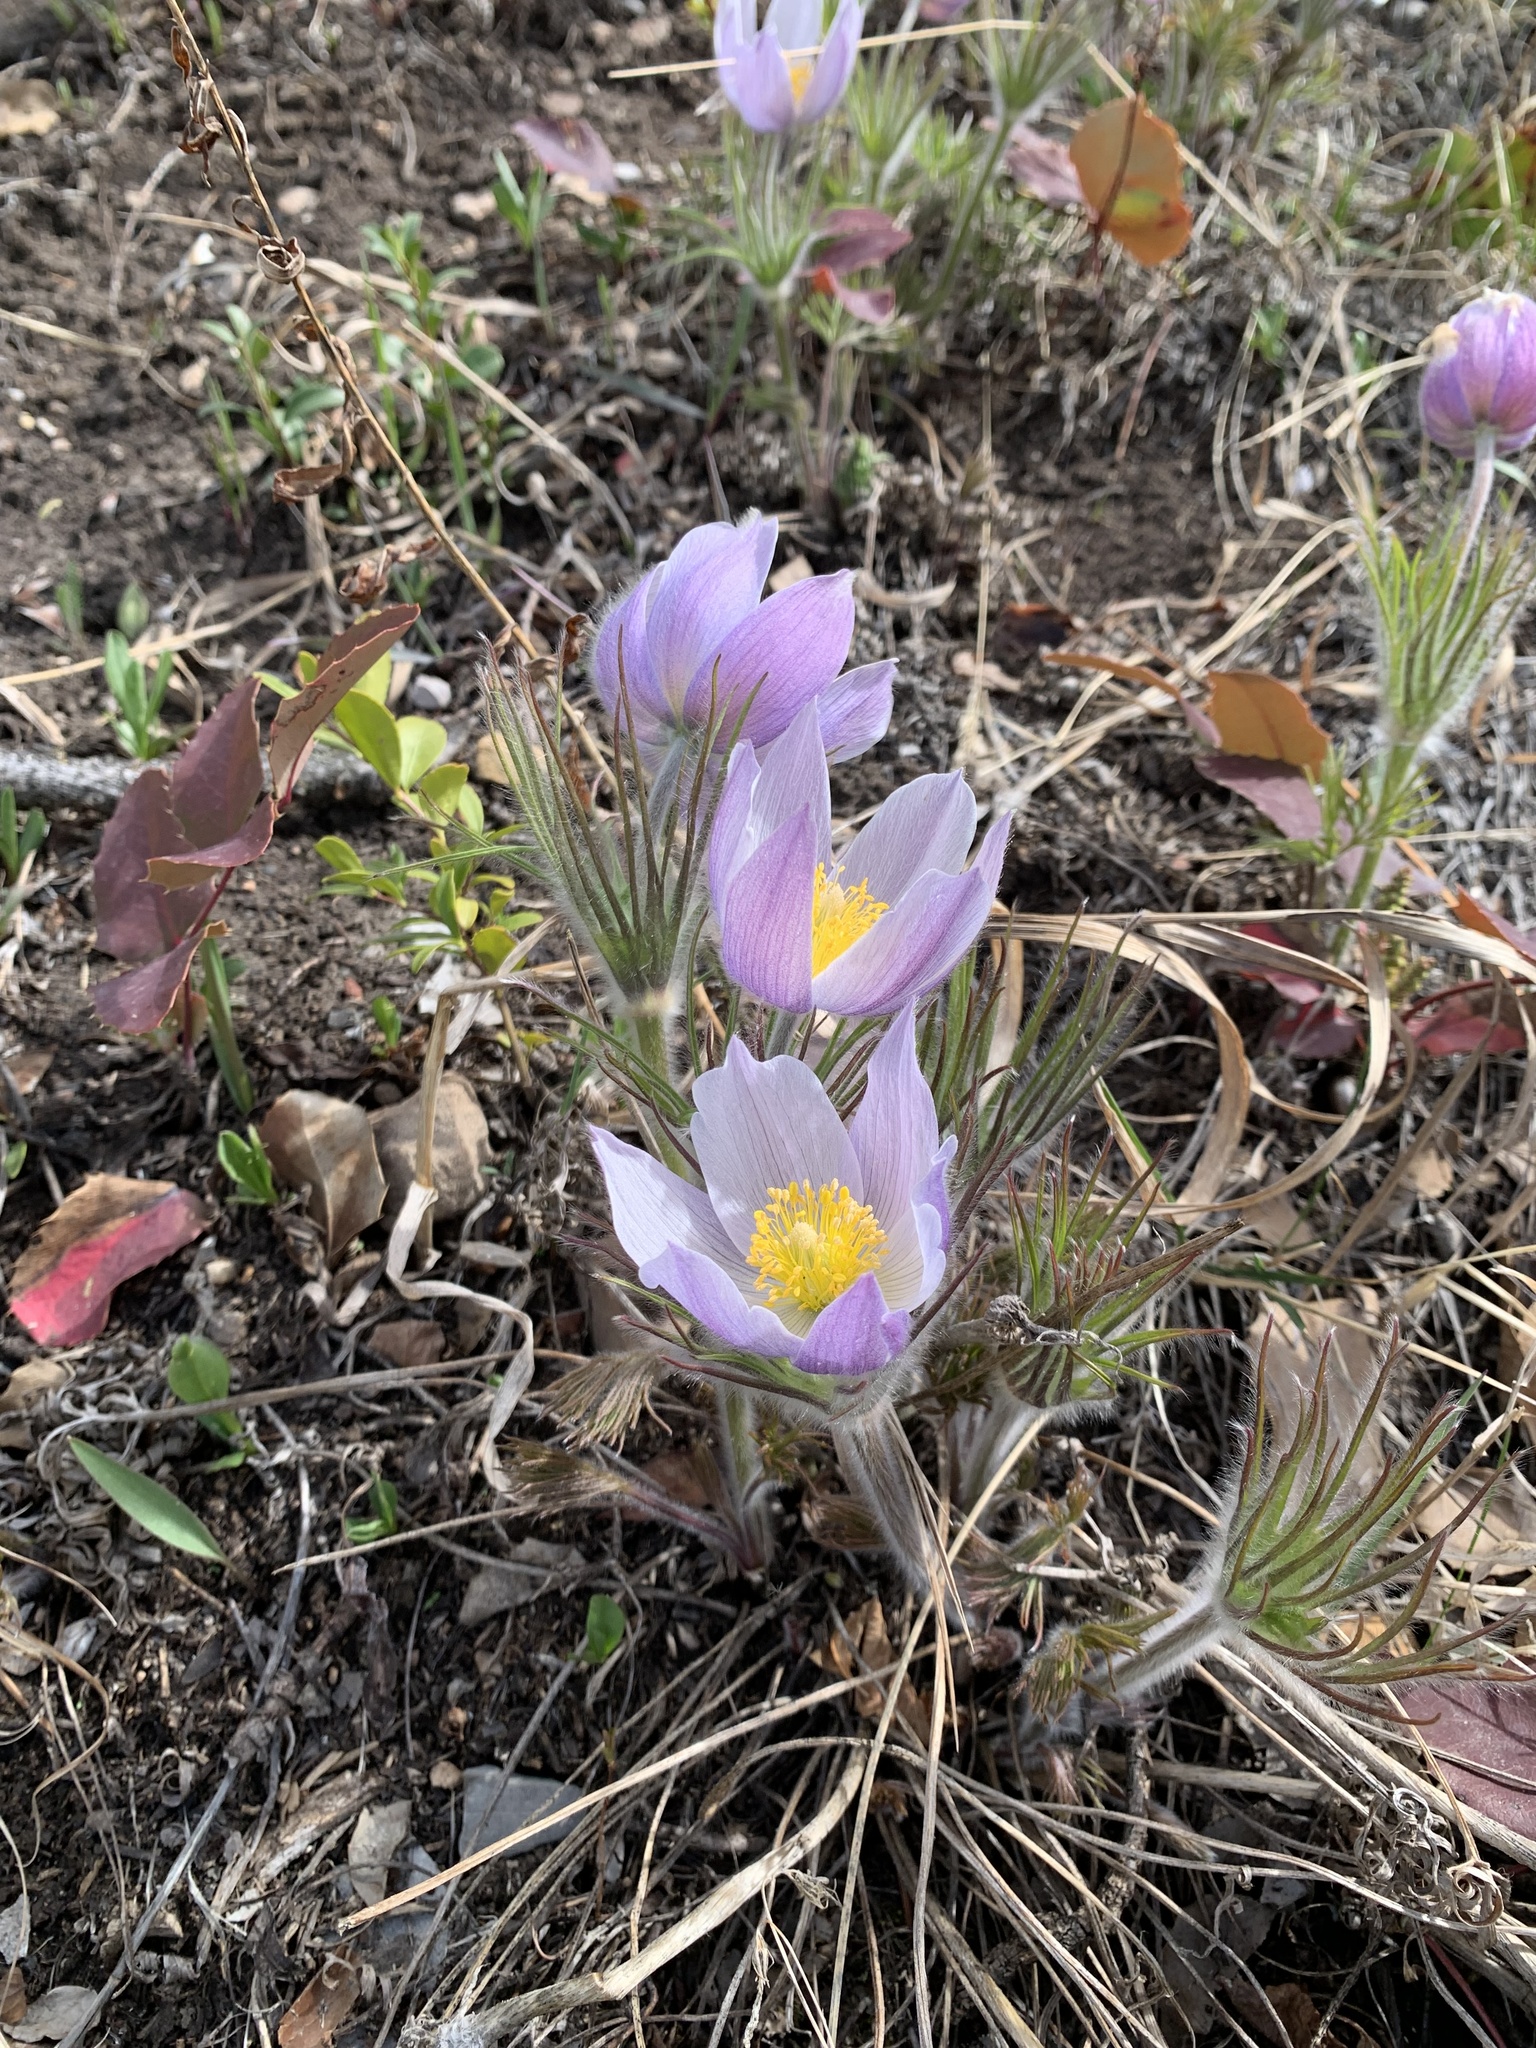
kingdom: Plantae
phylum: Tracheophyta
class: Magnoliopsida
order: Ranunculales
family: Ranunculaceae
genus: Pulsatilla
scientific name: Pulsatilla nuttalliana
